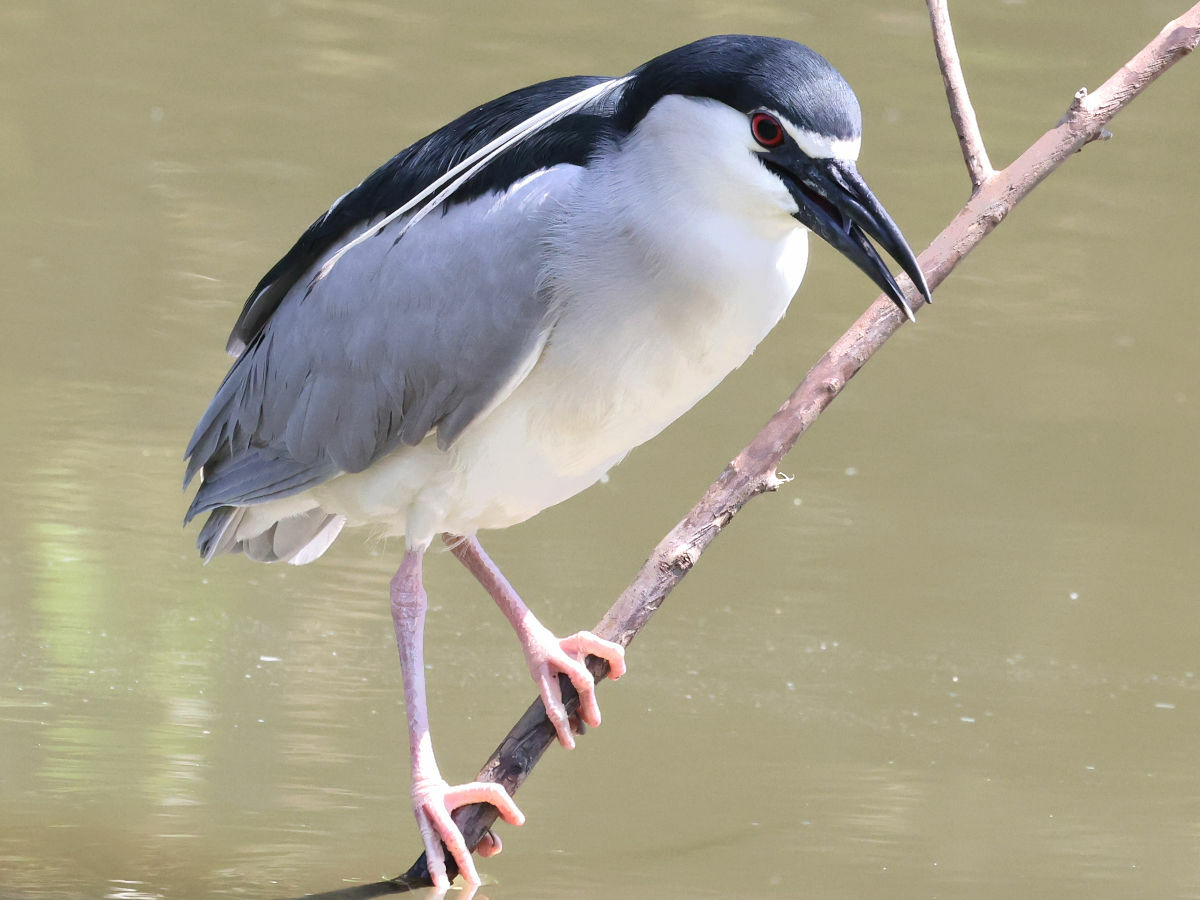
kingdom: Animalia
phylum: Chordata
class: Aves
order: Pelecaniformes
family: Ardeidae
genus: Nycticorax
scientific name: Nycticorax nycticorax
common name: Black-crowned night heron
